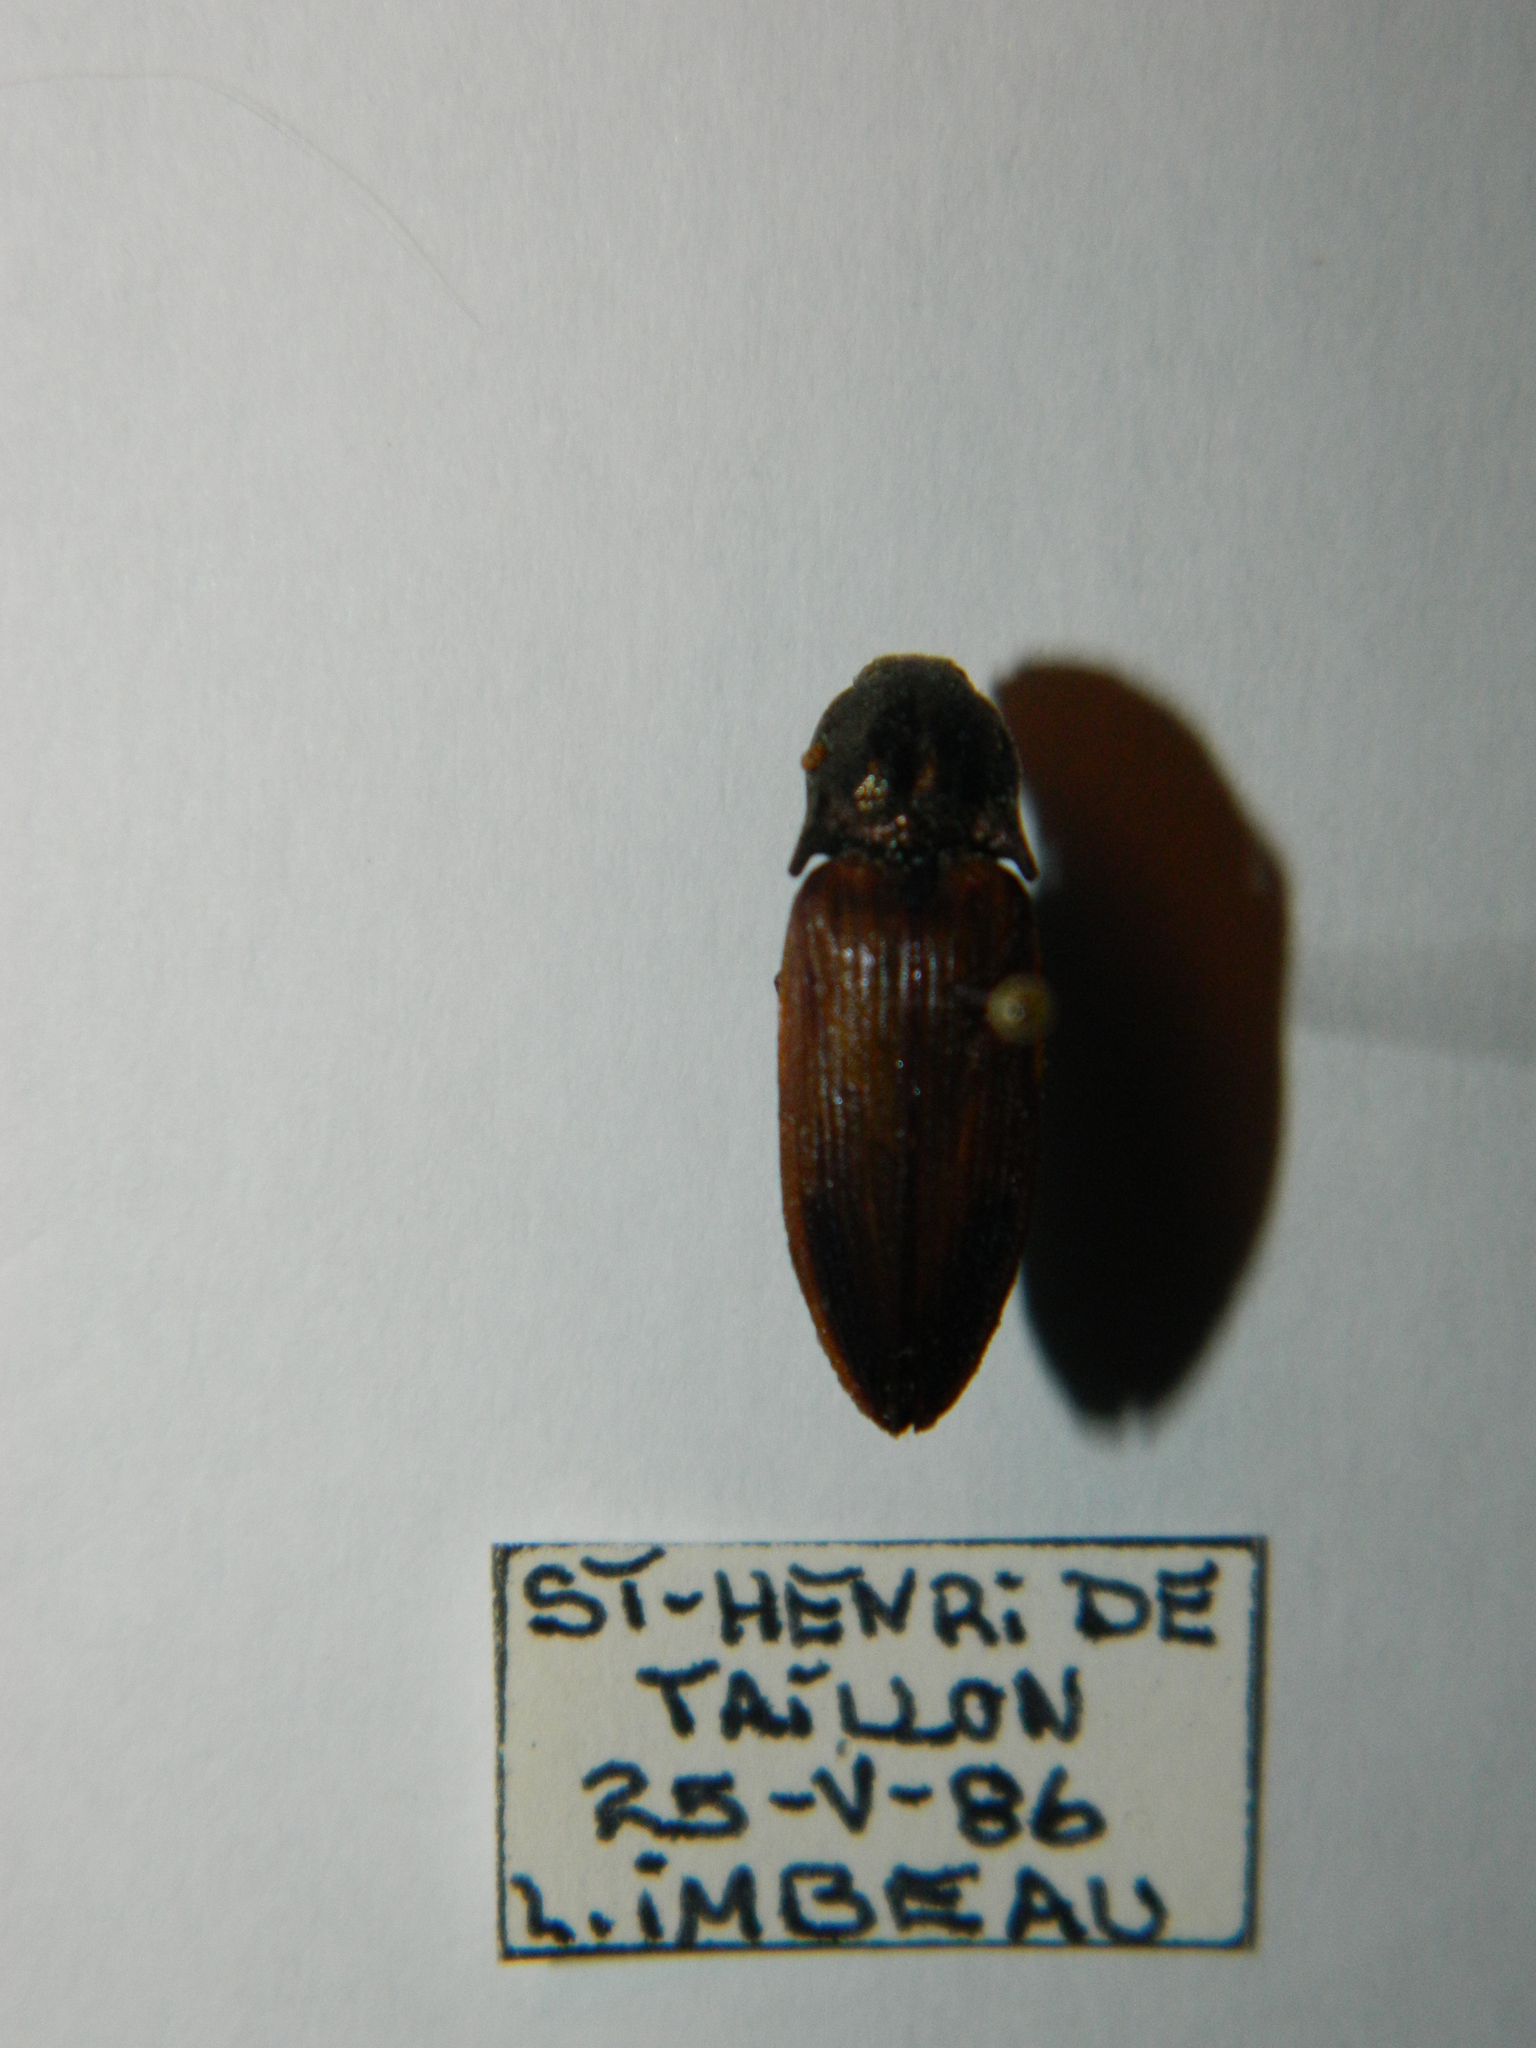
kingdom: Animalia
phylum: Arthropoda
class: Insecta
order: Coleoptera
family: Elateridae
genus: Ctenicera
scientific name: Ctenicera kendalli
